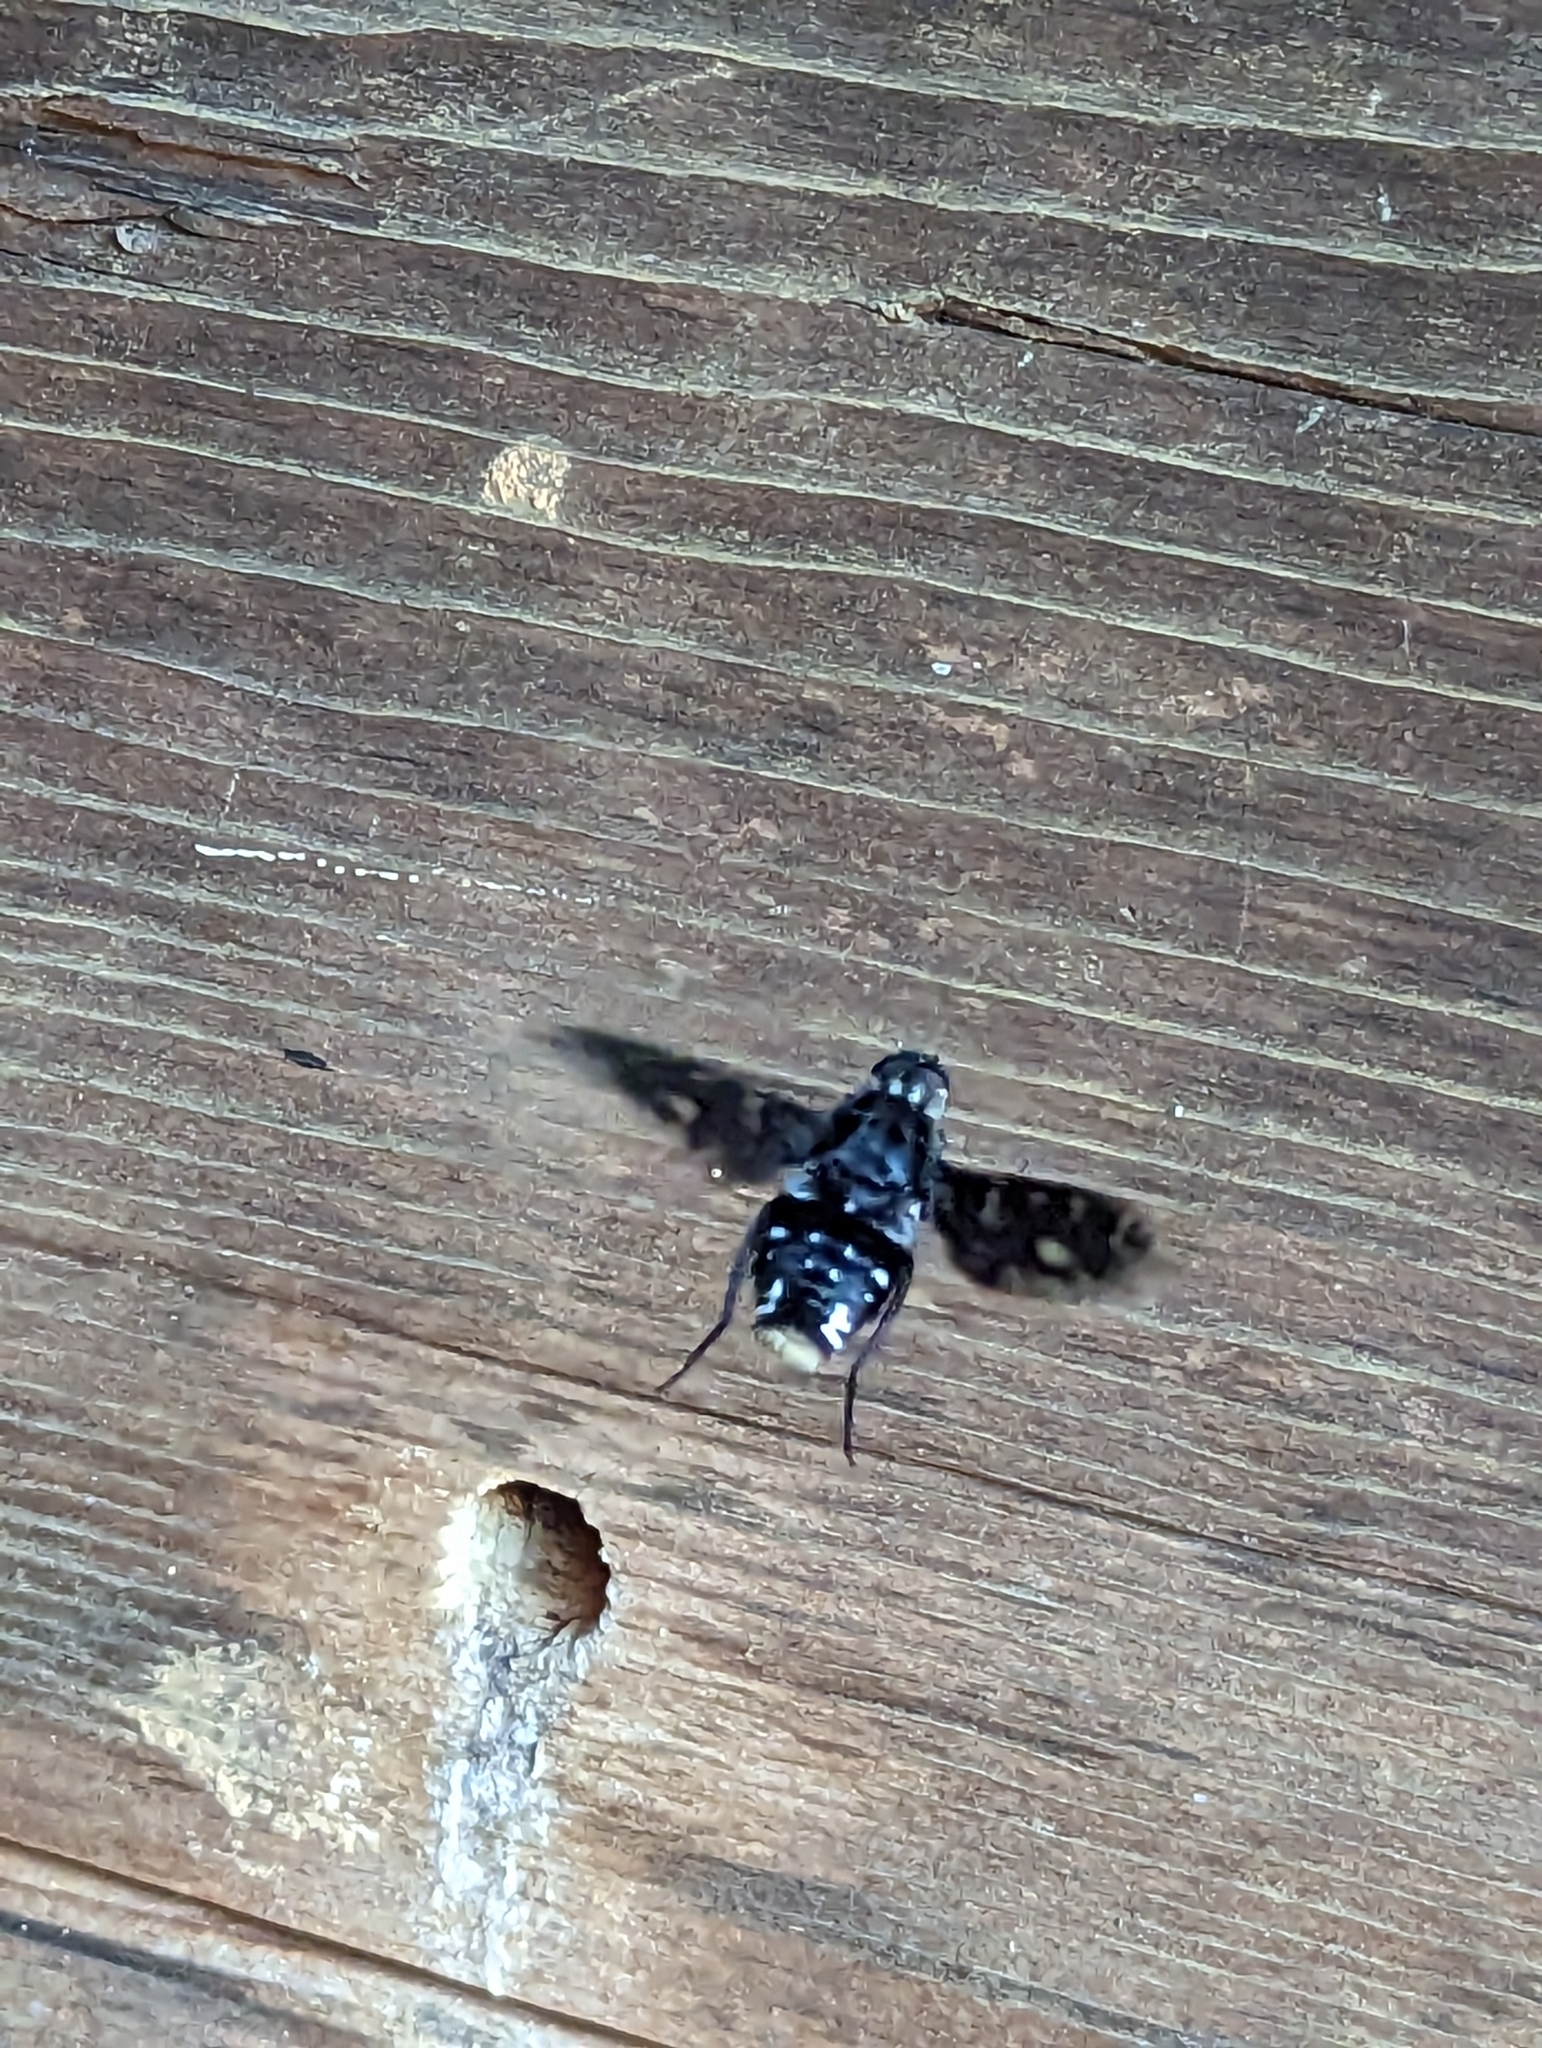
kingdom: Animalia
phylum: Arthropoda
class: Insecta
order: Diptera
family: Bombyliidae
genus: Xenox
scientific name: Xenox tigrinus
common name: Tiger bee fly
